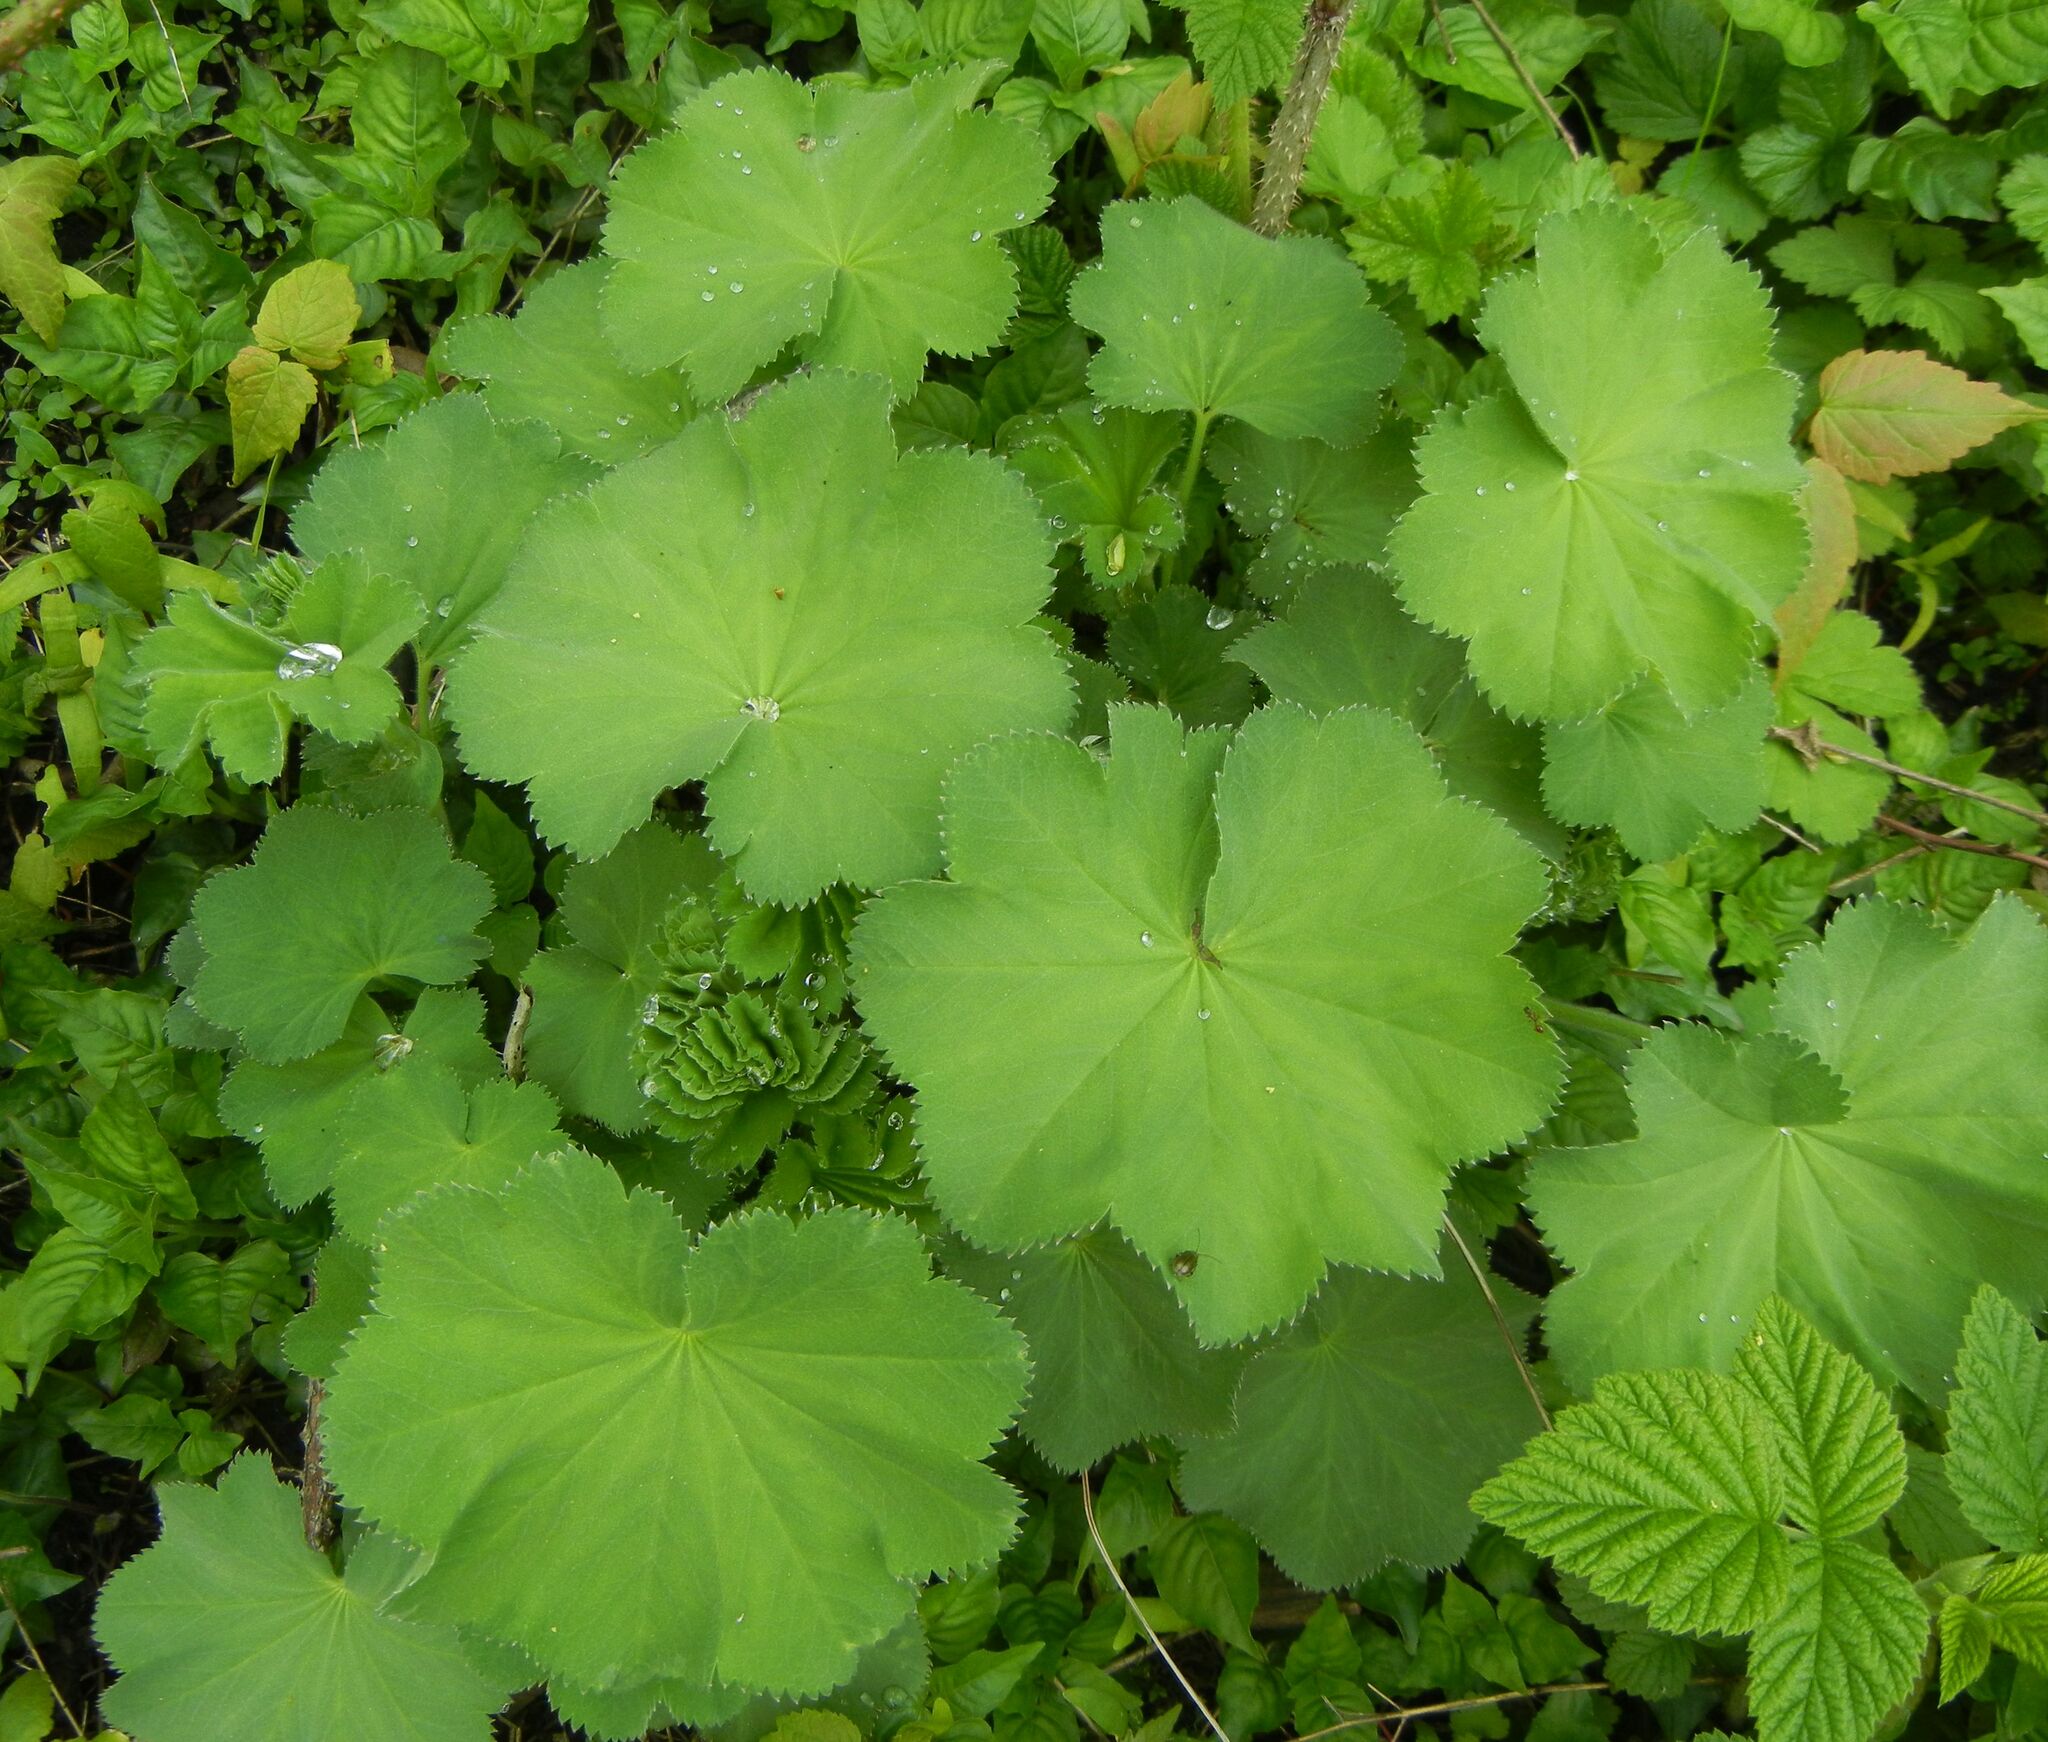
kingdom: Plantae
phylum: Tracheophyta
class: Magnoliopsida
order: Rosales
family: Rosaceae
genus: Alchemilla
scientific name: Alchemilla mollis
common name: Lady's-mantle
